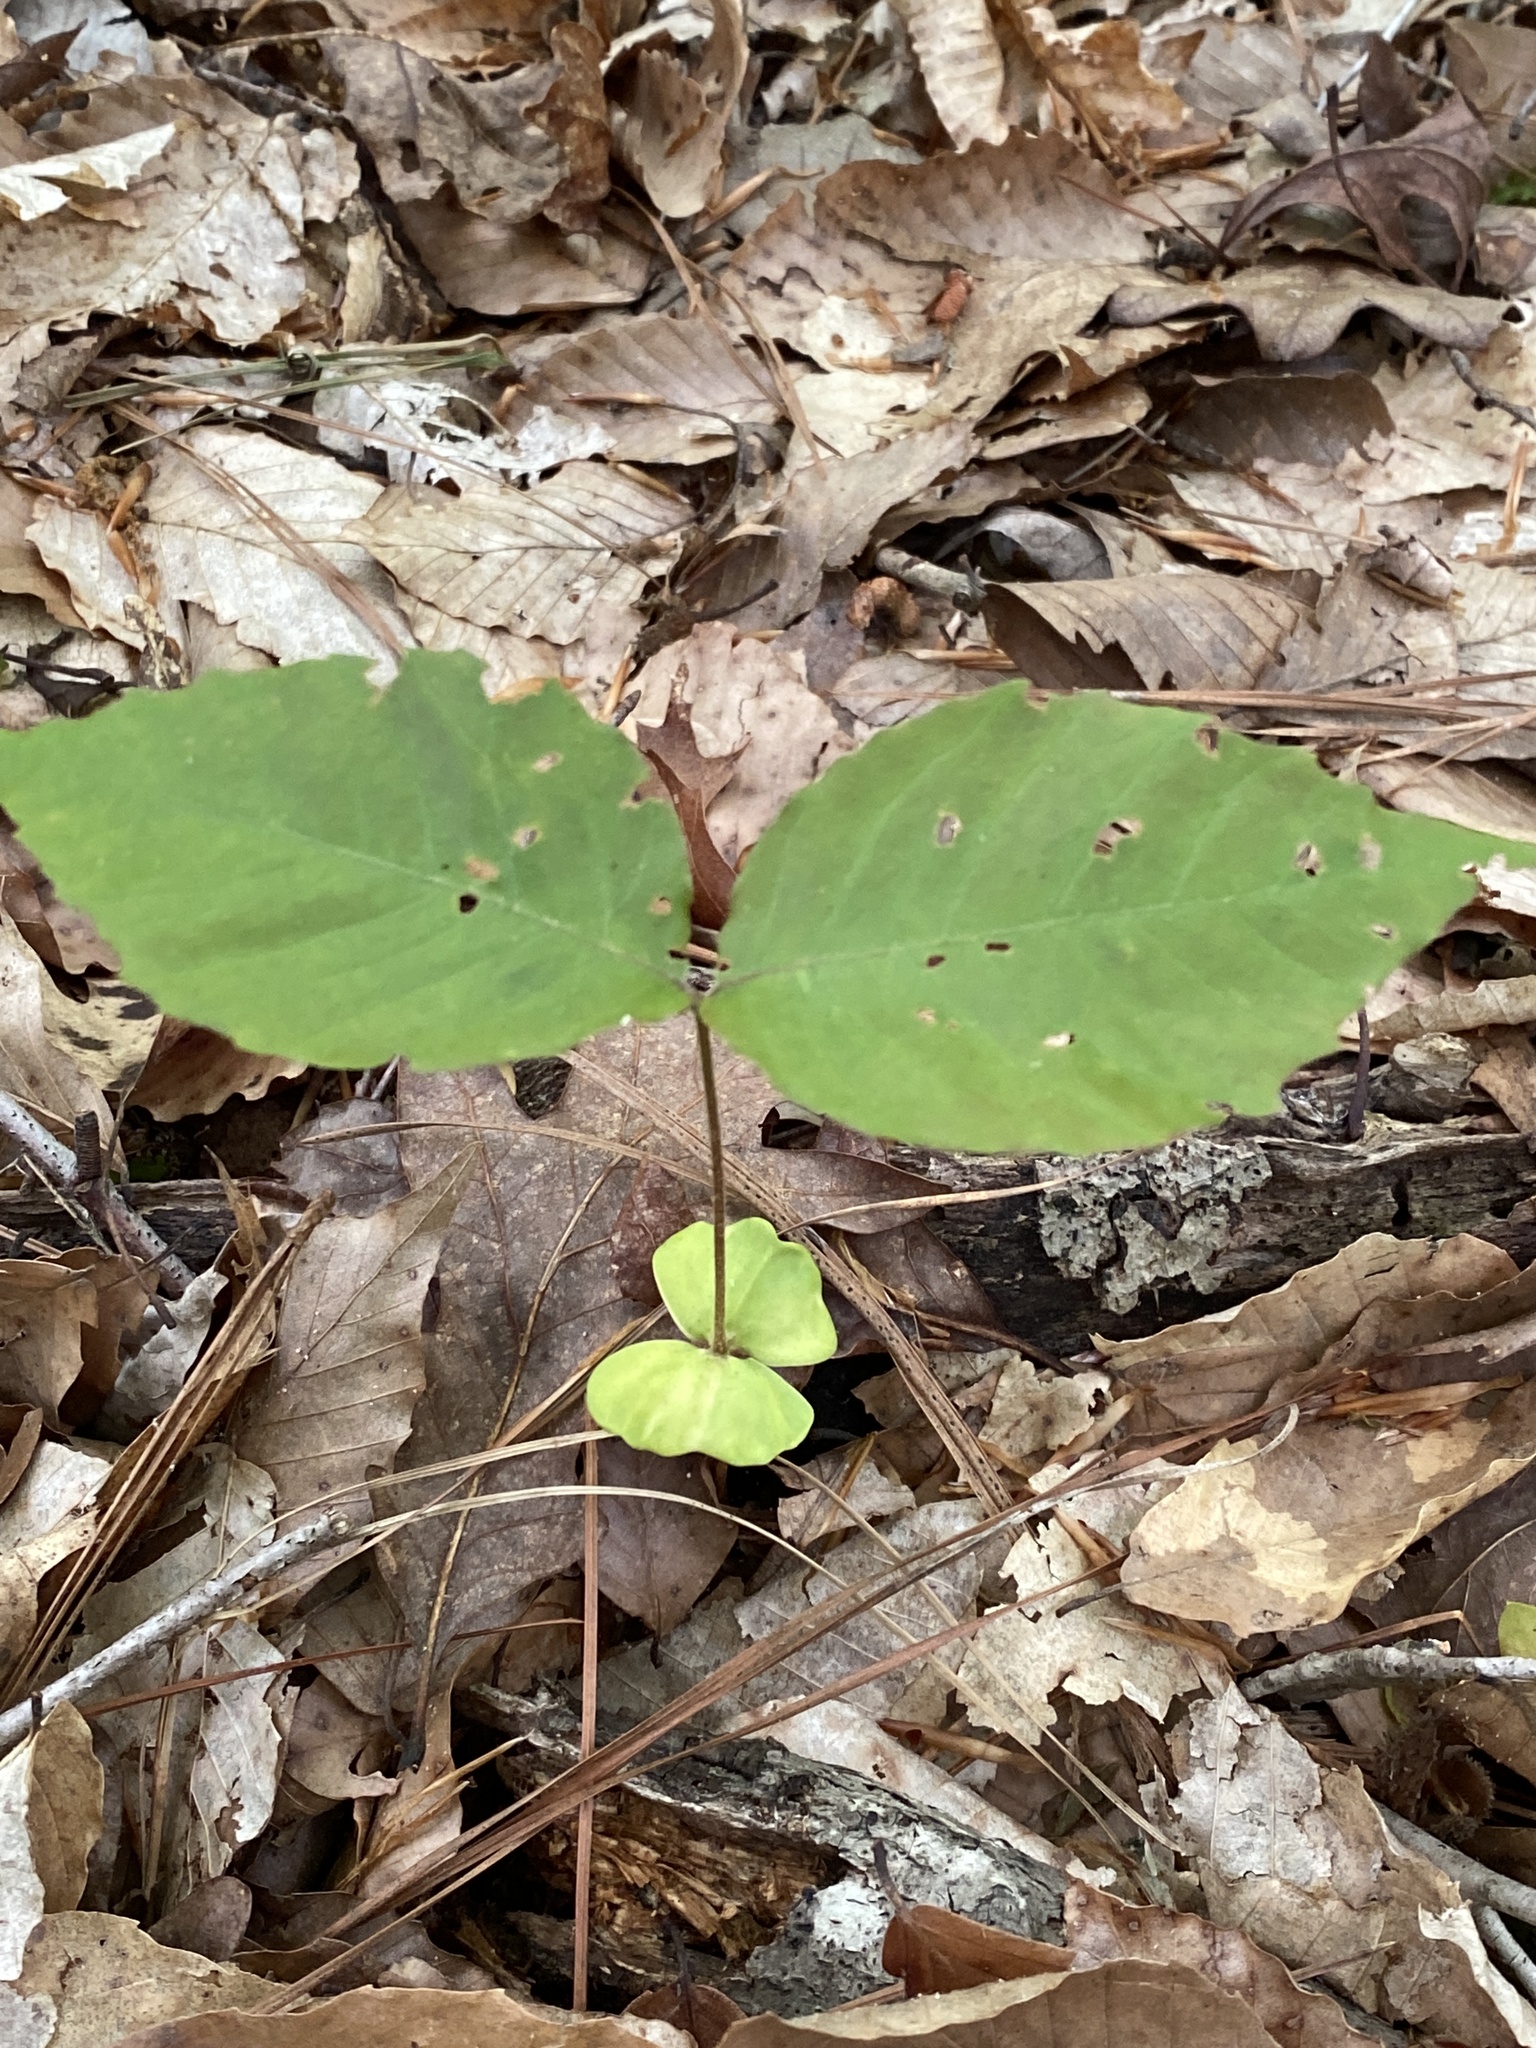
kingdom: Plantae
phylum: Tracheophyta
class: Magnoliopsida
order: Fagales
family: Fagaceae
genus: Fagus
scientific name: Fagus grandifolia
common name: American beech
